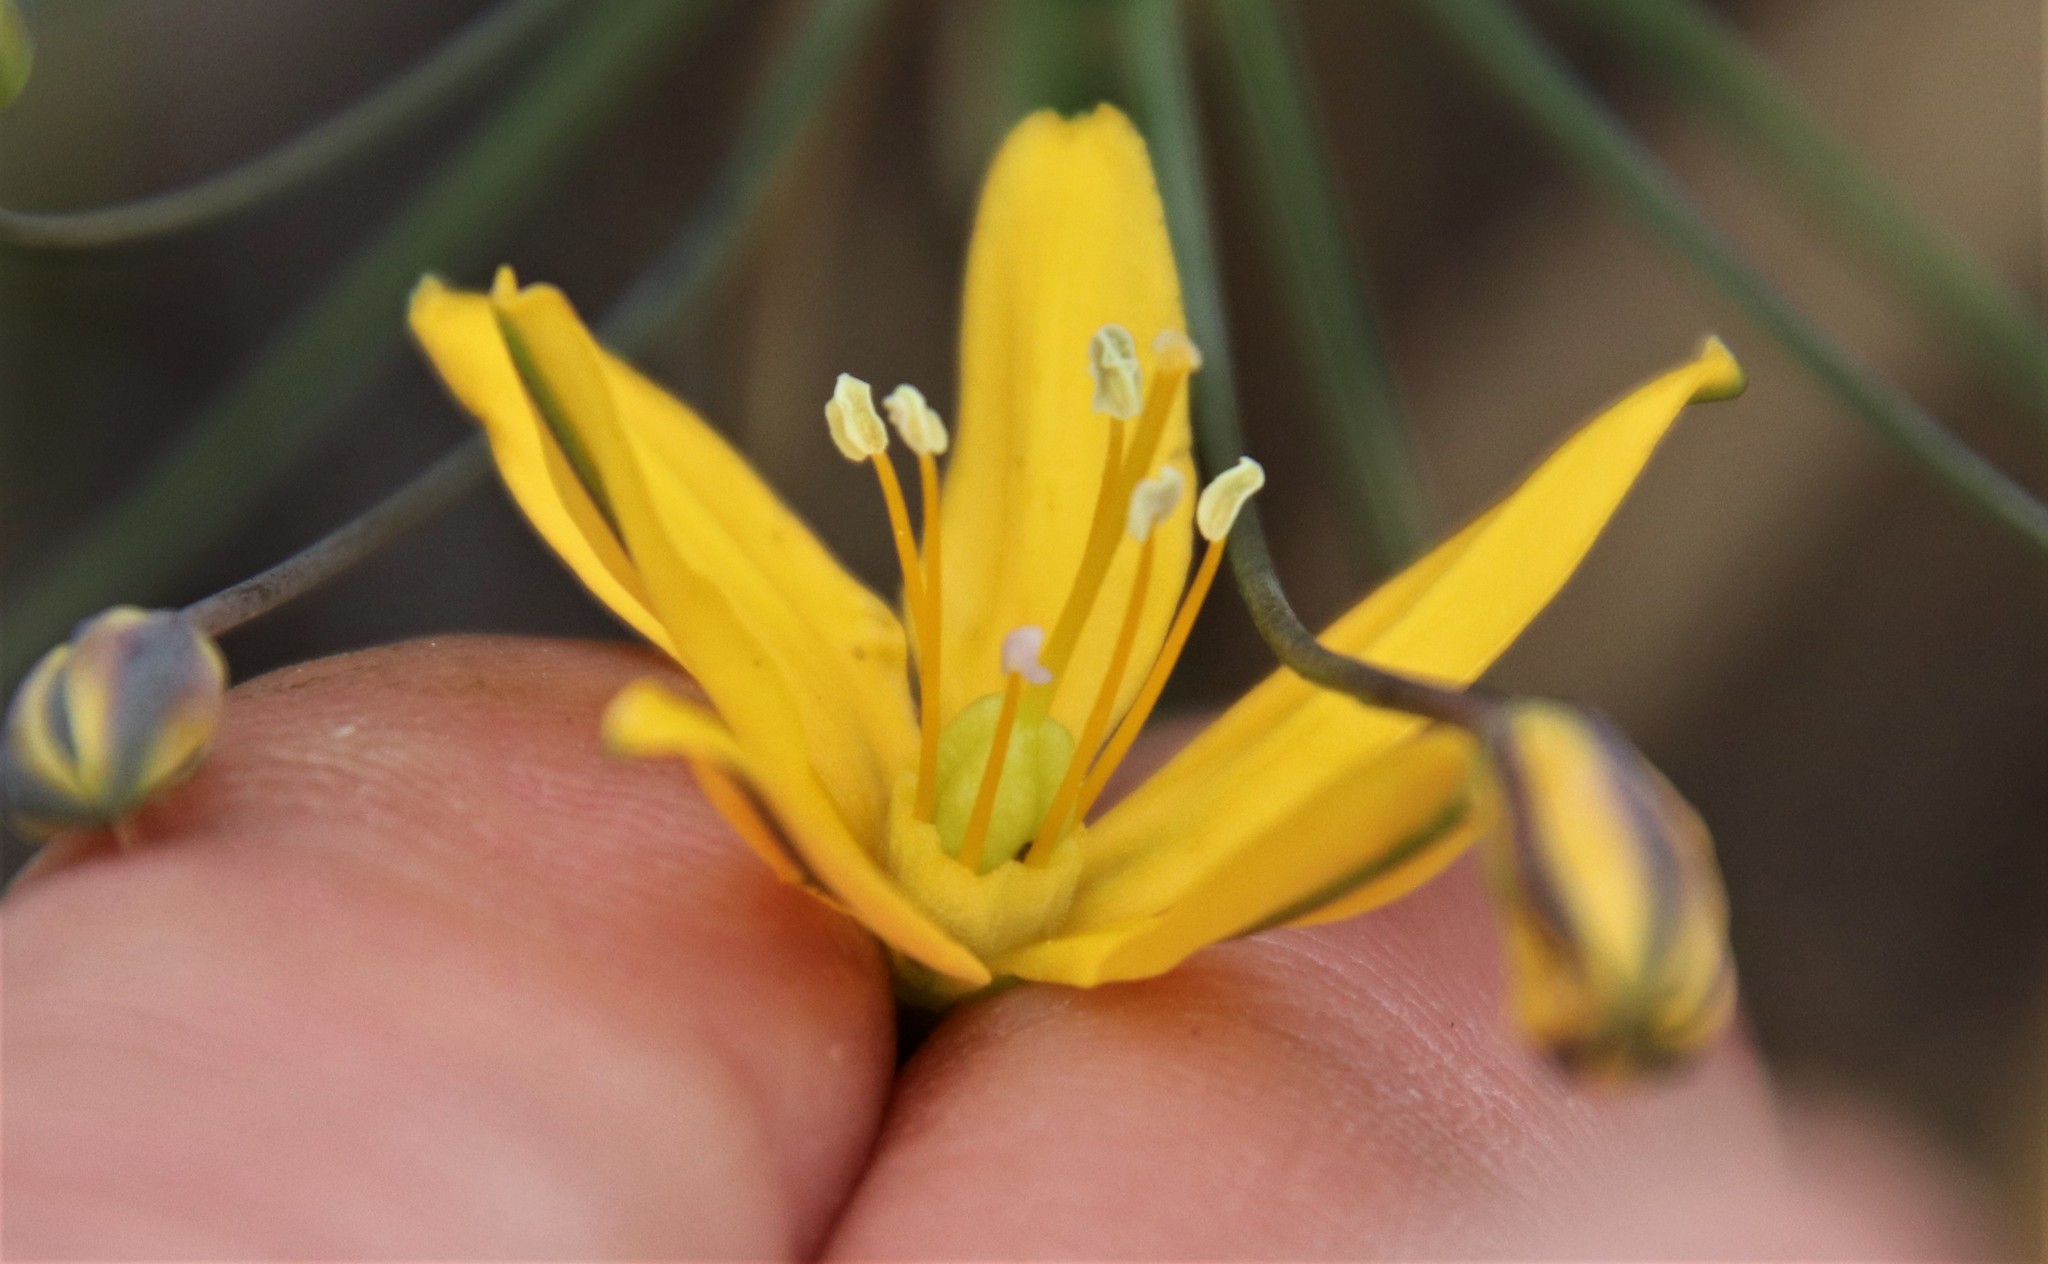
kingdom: Plantae
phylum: Tracheophyta
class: Liliopsida
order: Asparagales
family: Asparagaceae
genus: Bloomeria
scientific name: Bloomeria crocea
